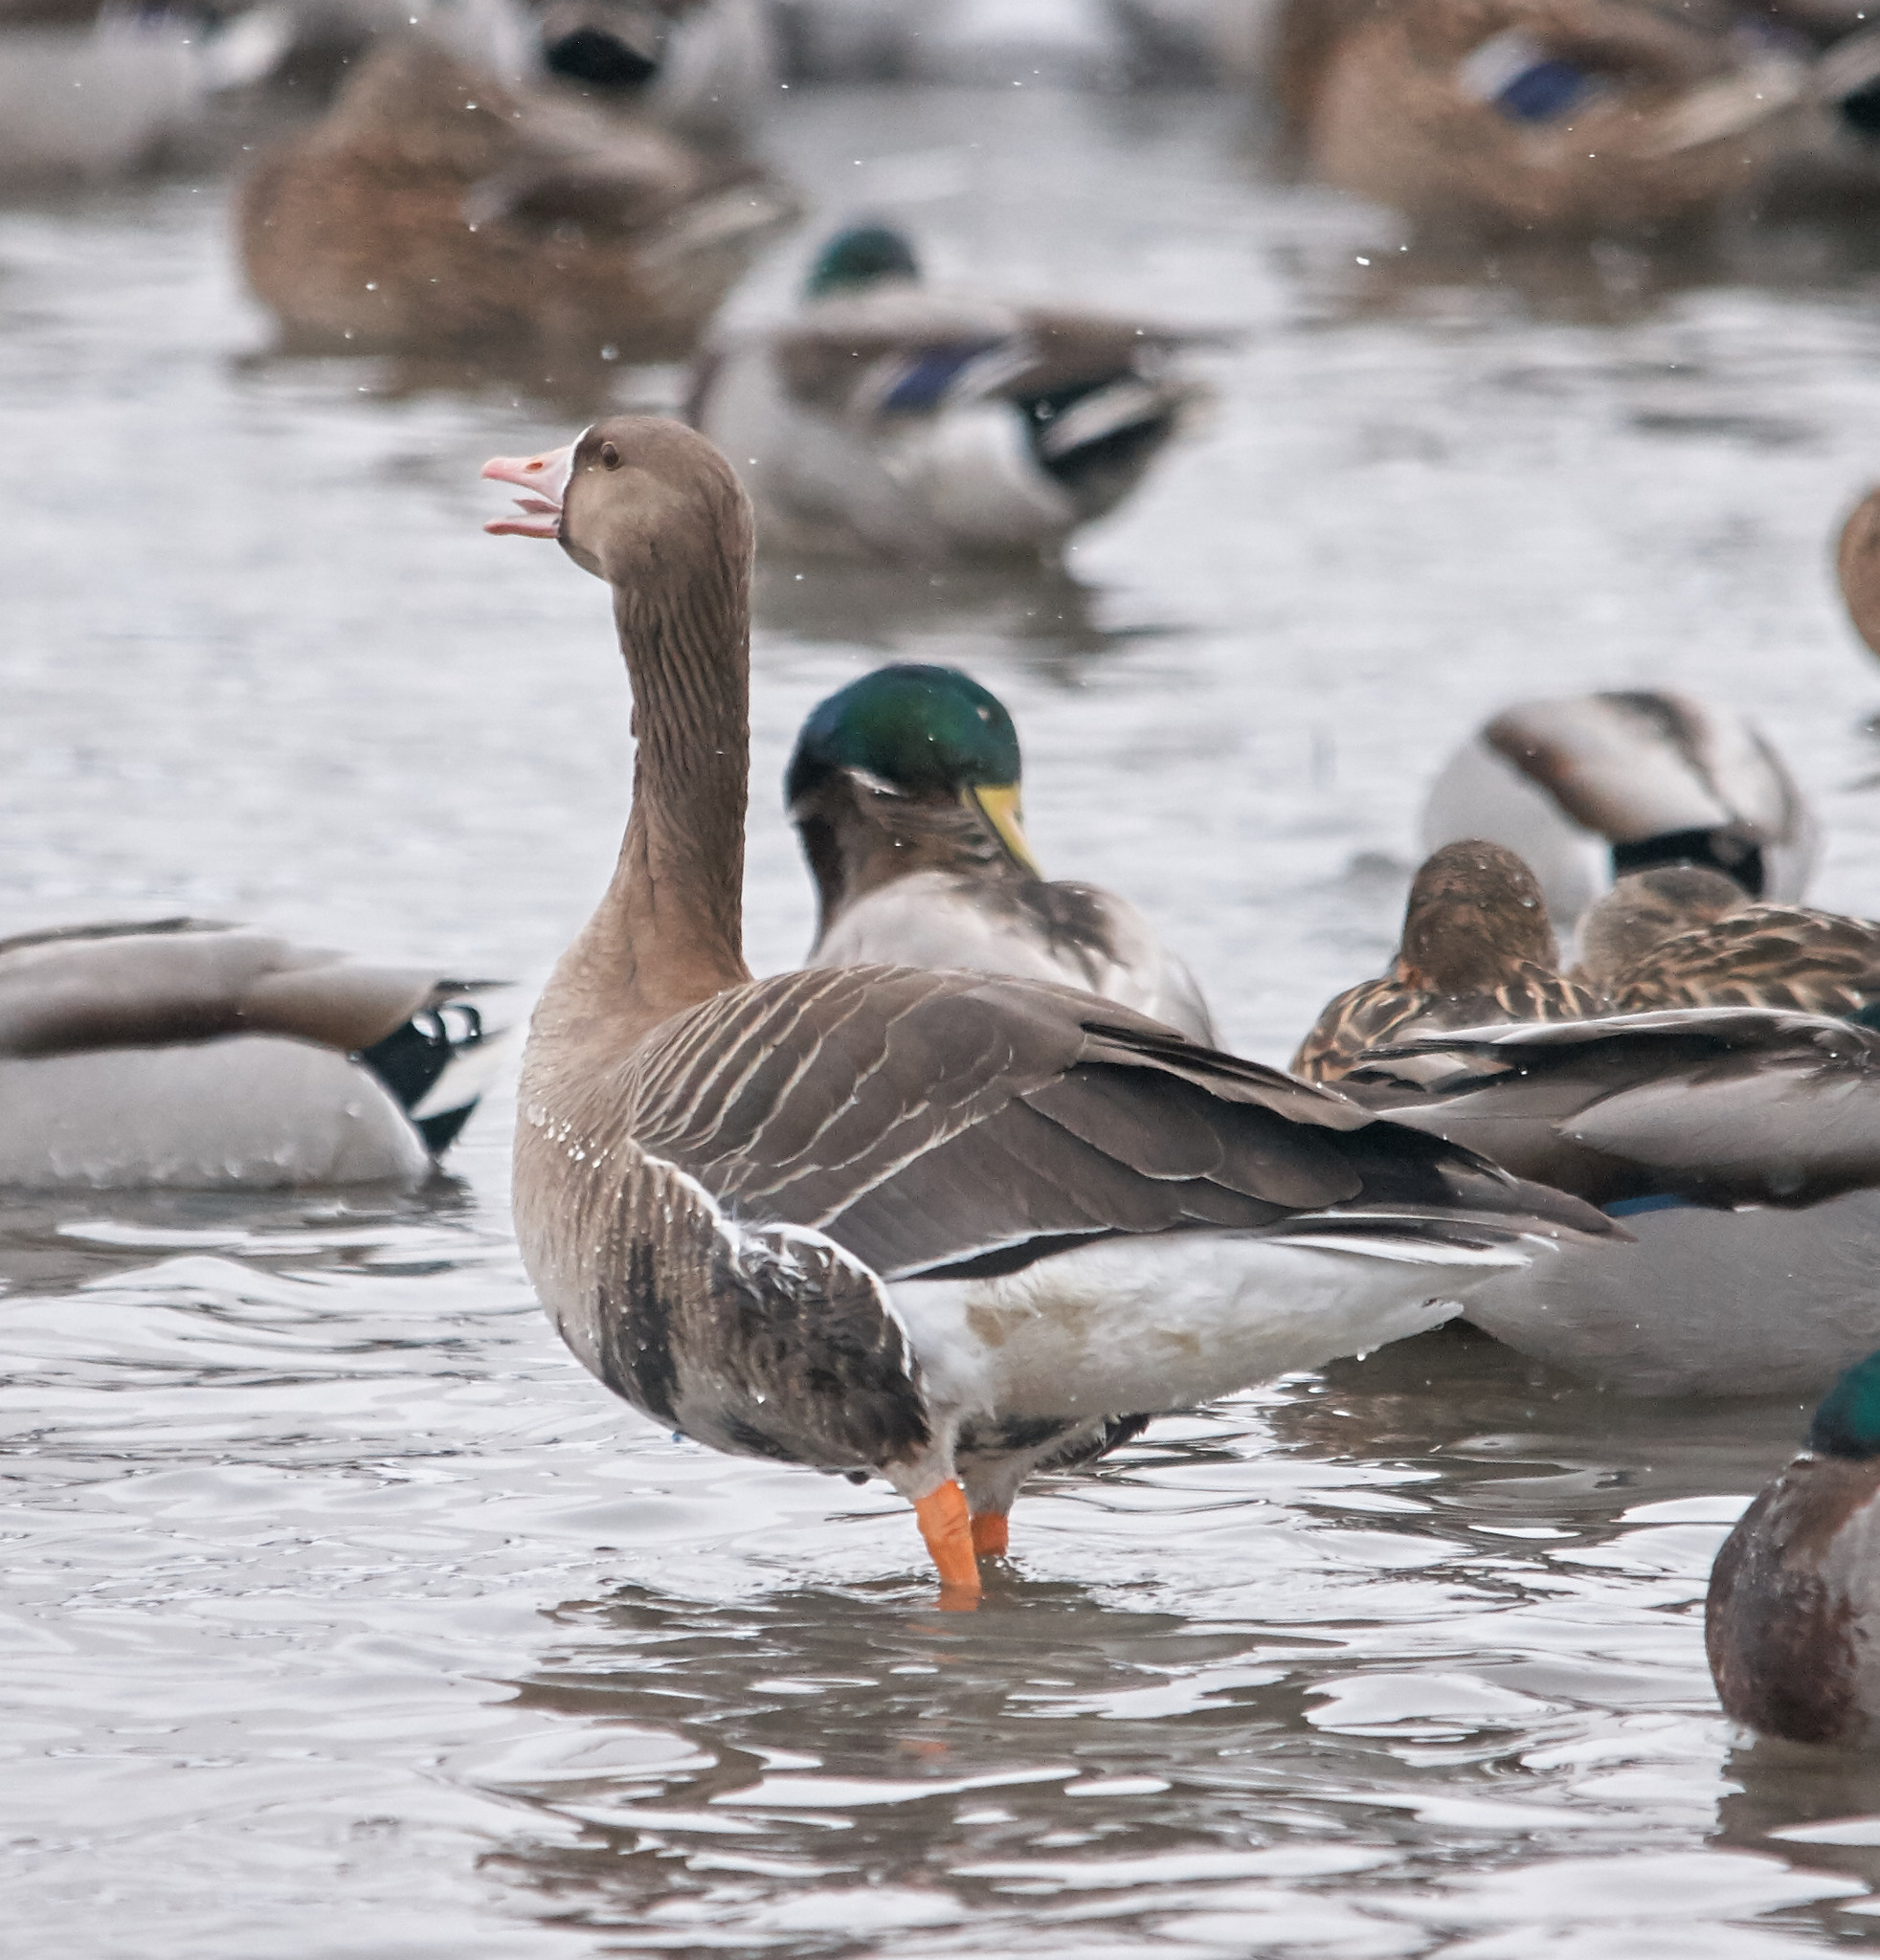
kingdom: Animalia
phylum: Chordata
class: Aves
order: Anseriformes
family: Anatidae
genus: Anser
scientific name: Anser albifrons
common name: Greater white-fronted goose
